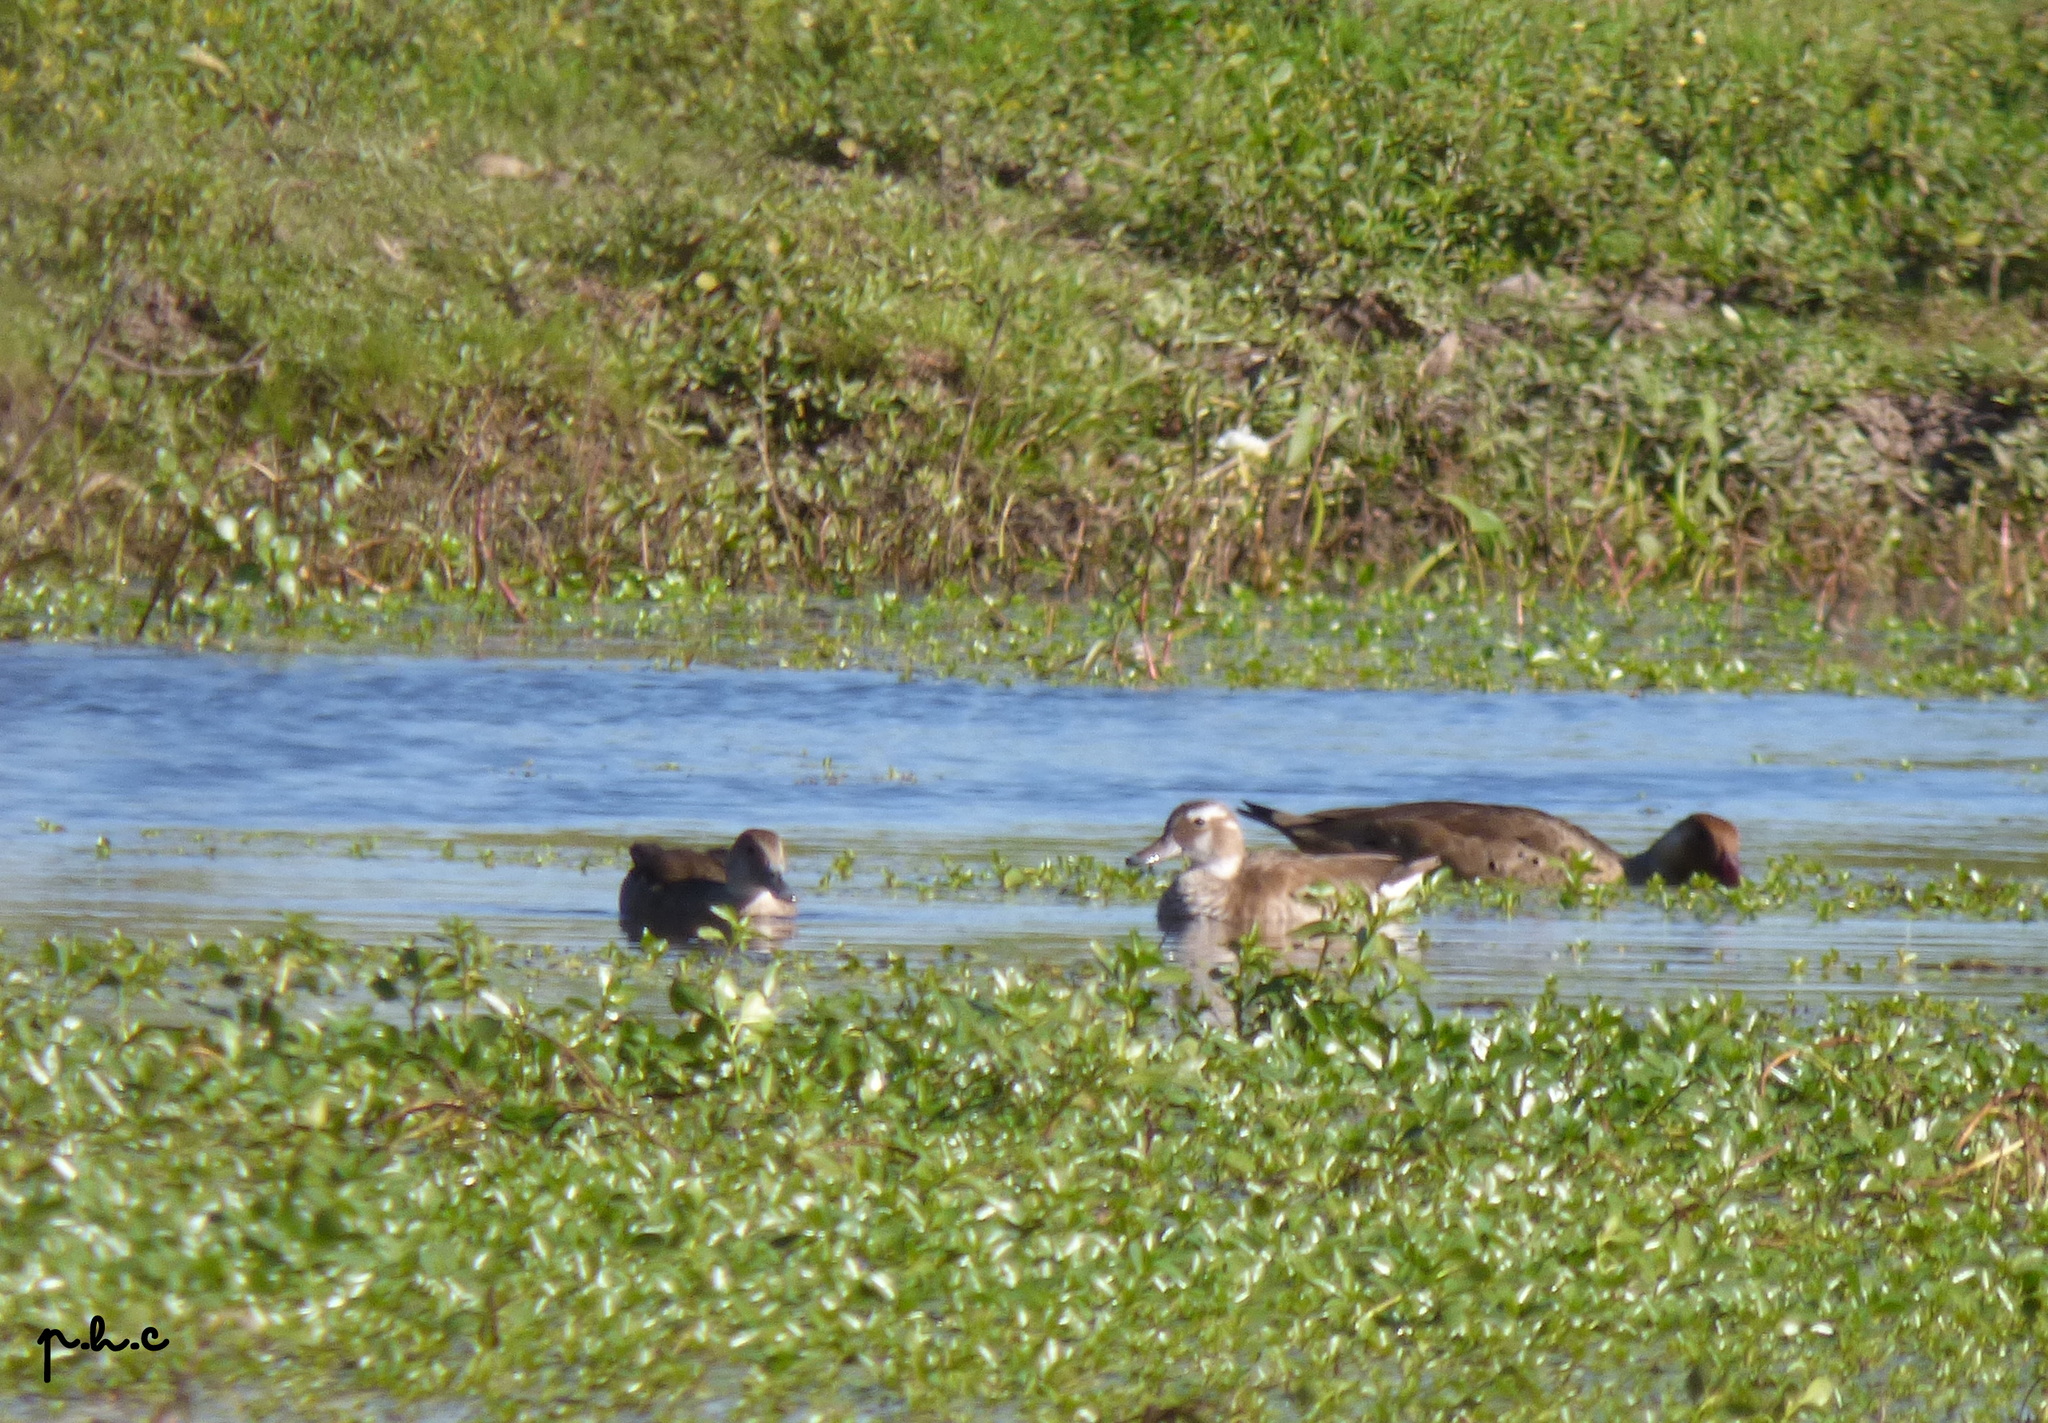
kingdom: Animalia
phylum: Chordata
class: Aves
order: Anseriformes
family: Anatidae
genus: Callonetta
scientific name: Callonetta leucophrys
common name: Ringed teal
